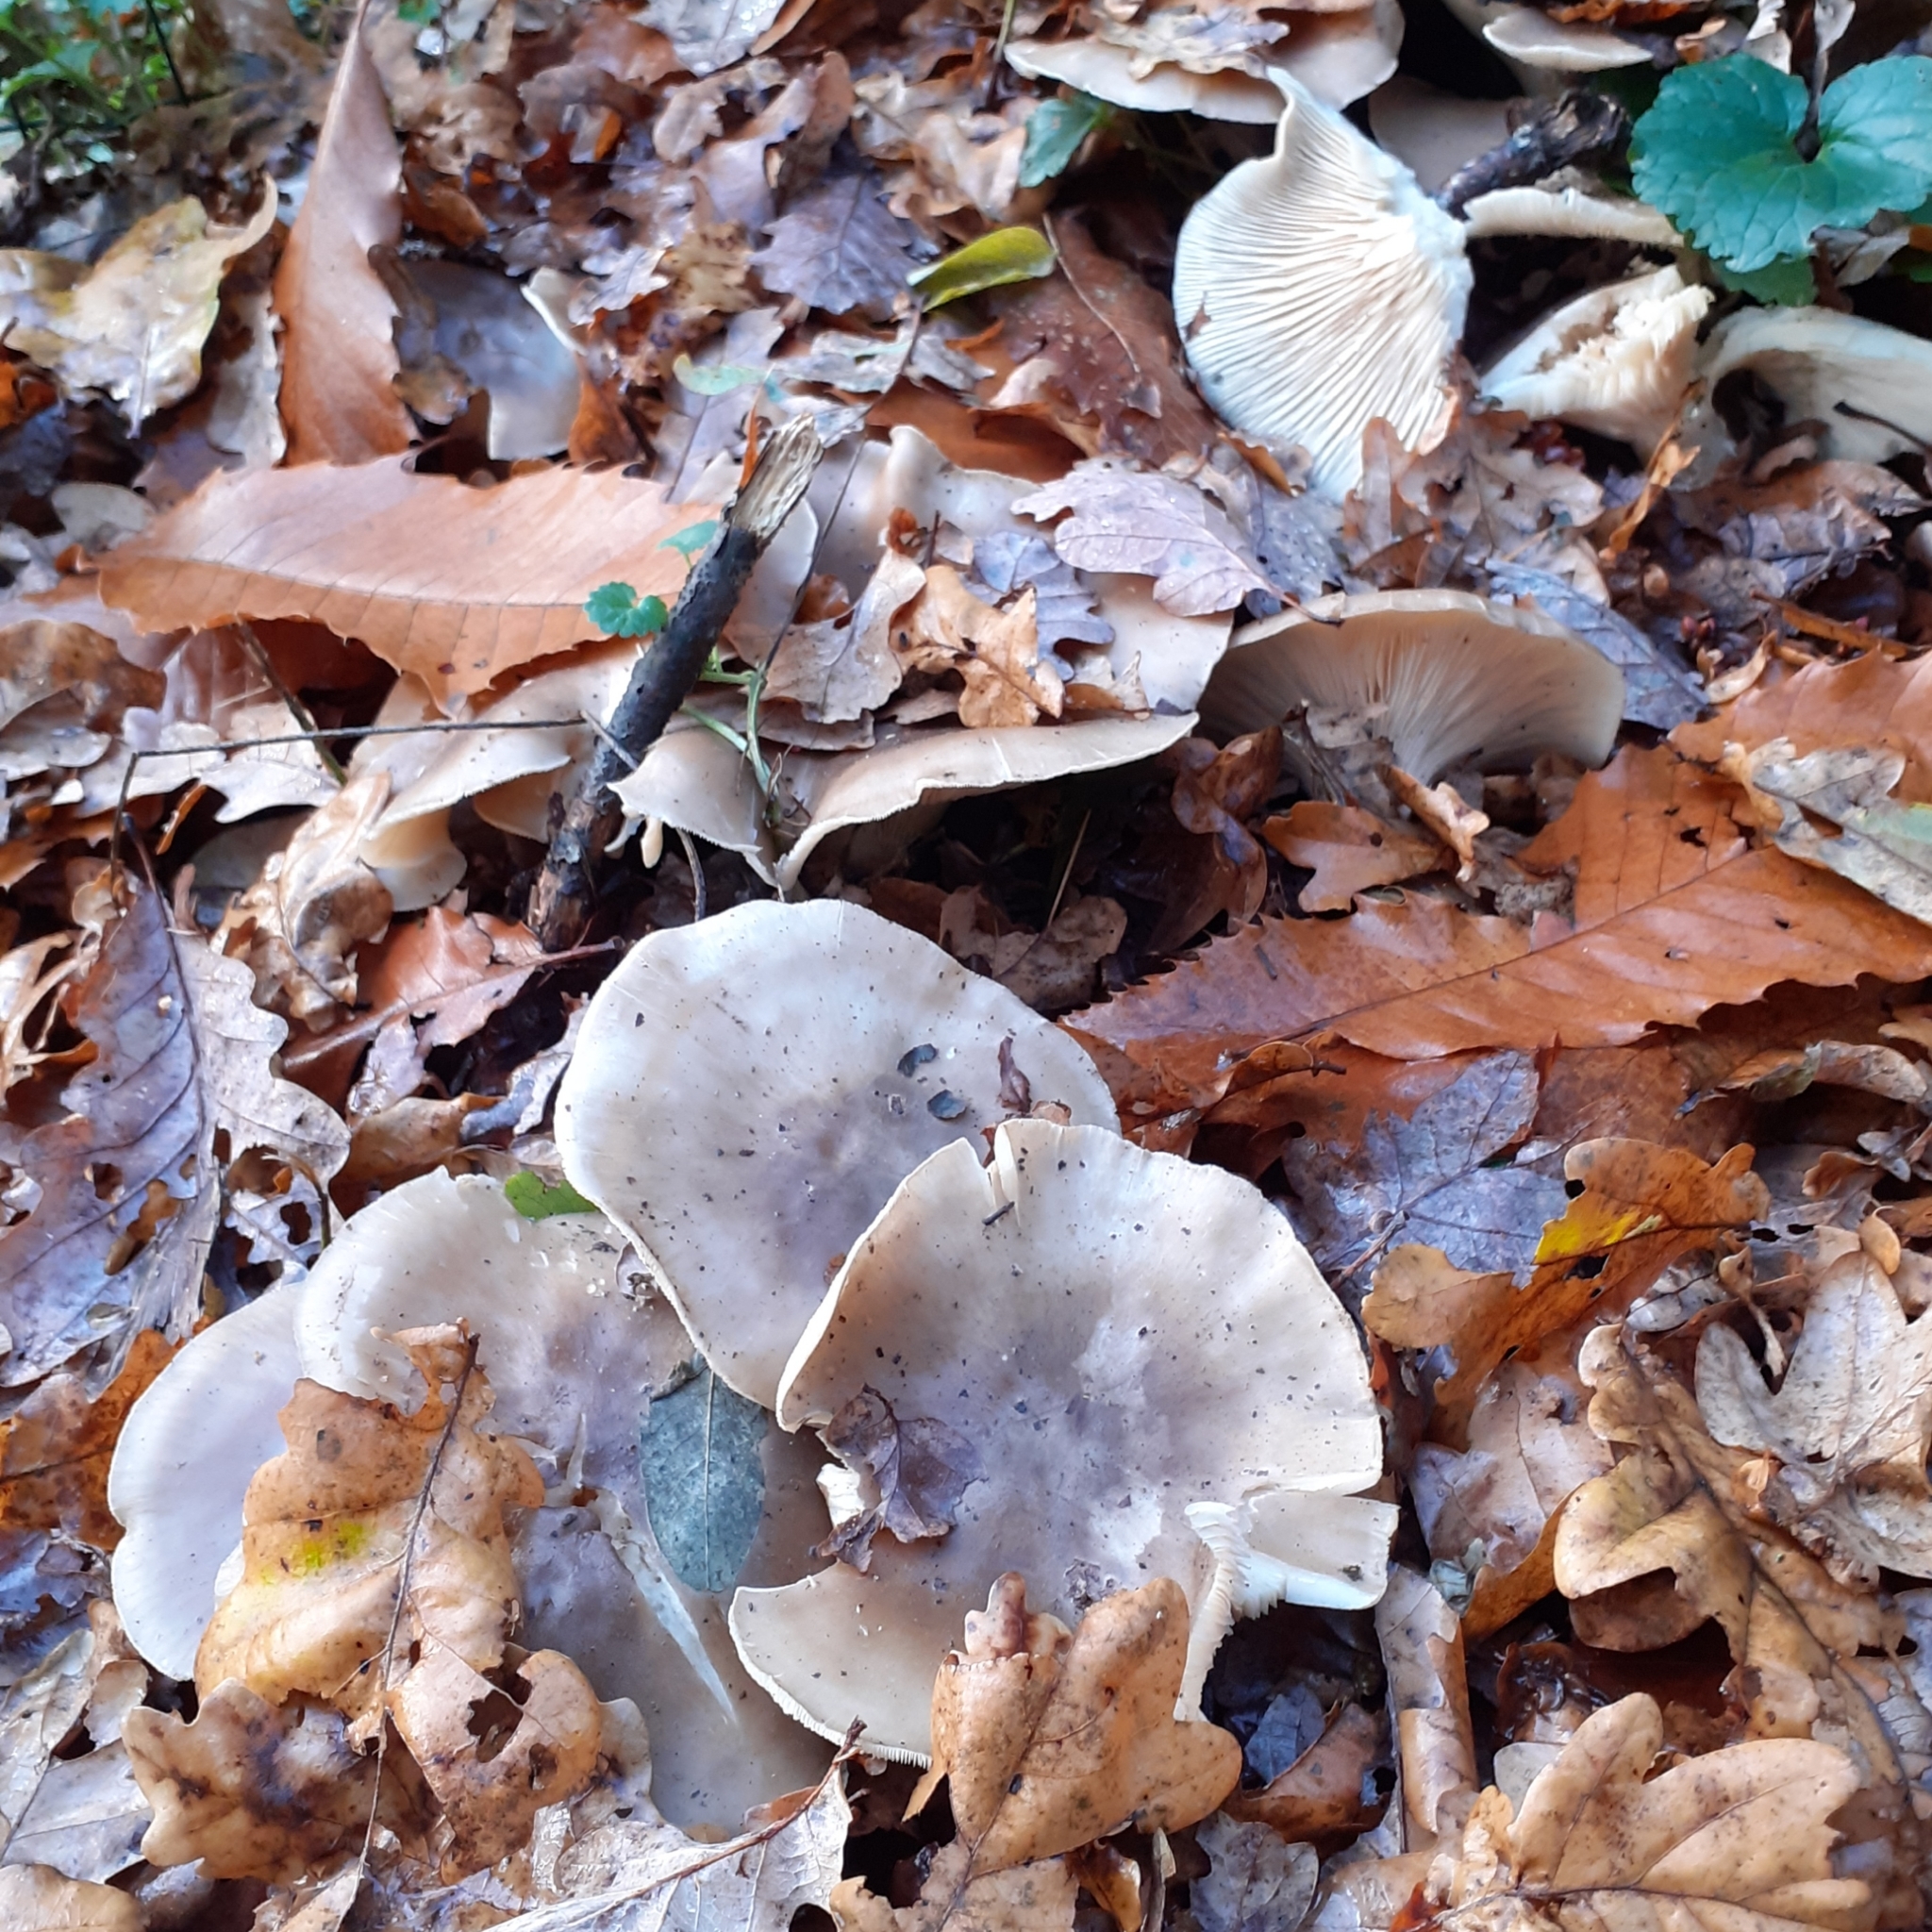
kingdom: Fungi
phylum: Basidiomycota
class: Agaricomycetes
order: Agaricales
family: Tricholomataceae
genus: Clitocybe
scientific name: Clitocybe nebularis
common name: Clouded agaric
